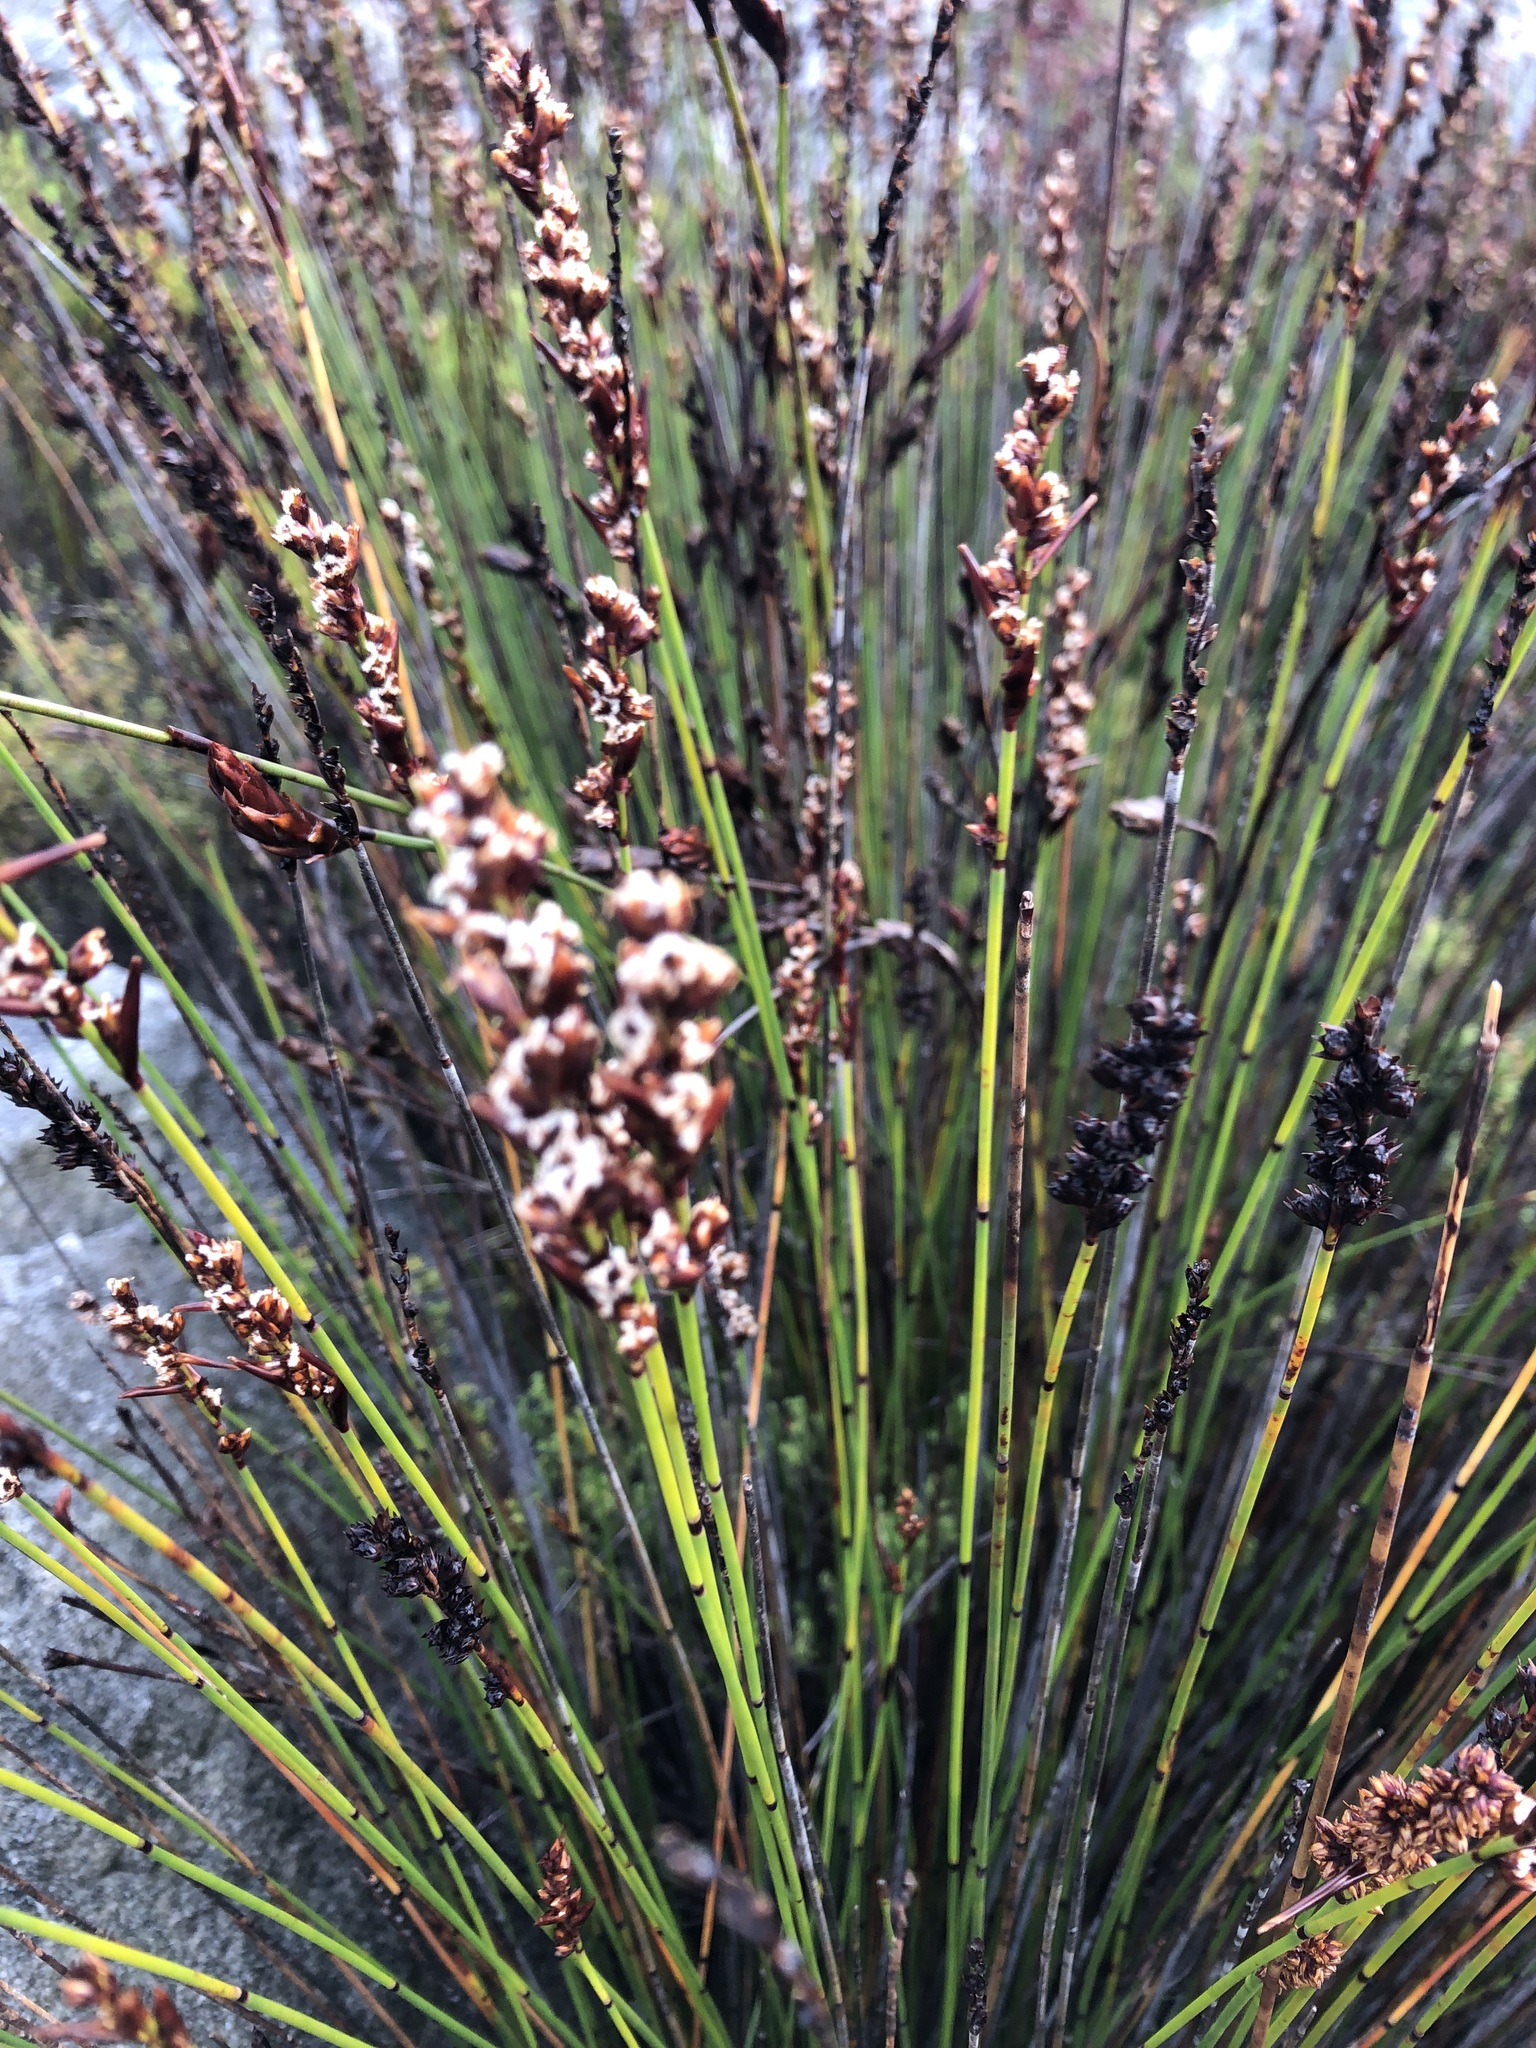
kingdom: Plantae
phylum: Tracheophyta
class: Liliopsida
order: Poales
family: Restionaceae
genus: Elegia
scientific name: Elegia ebracteata
